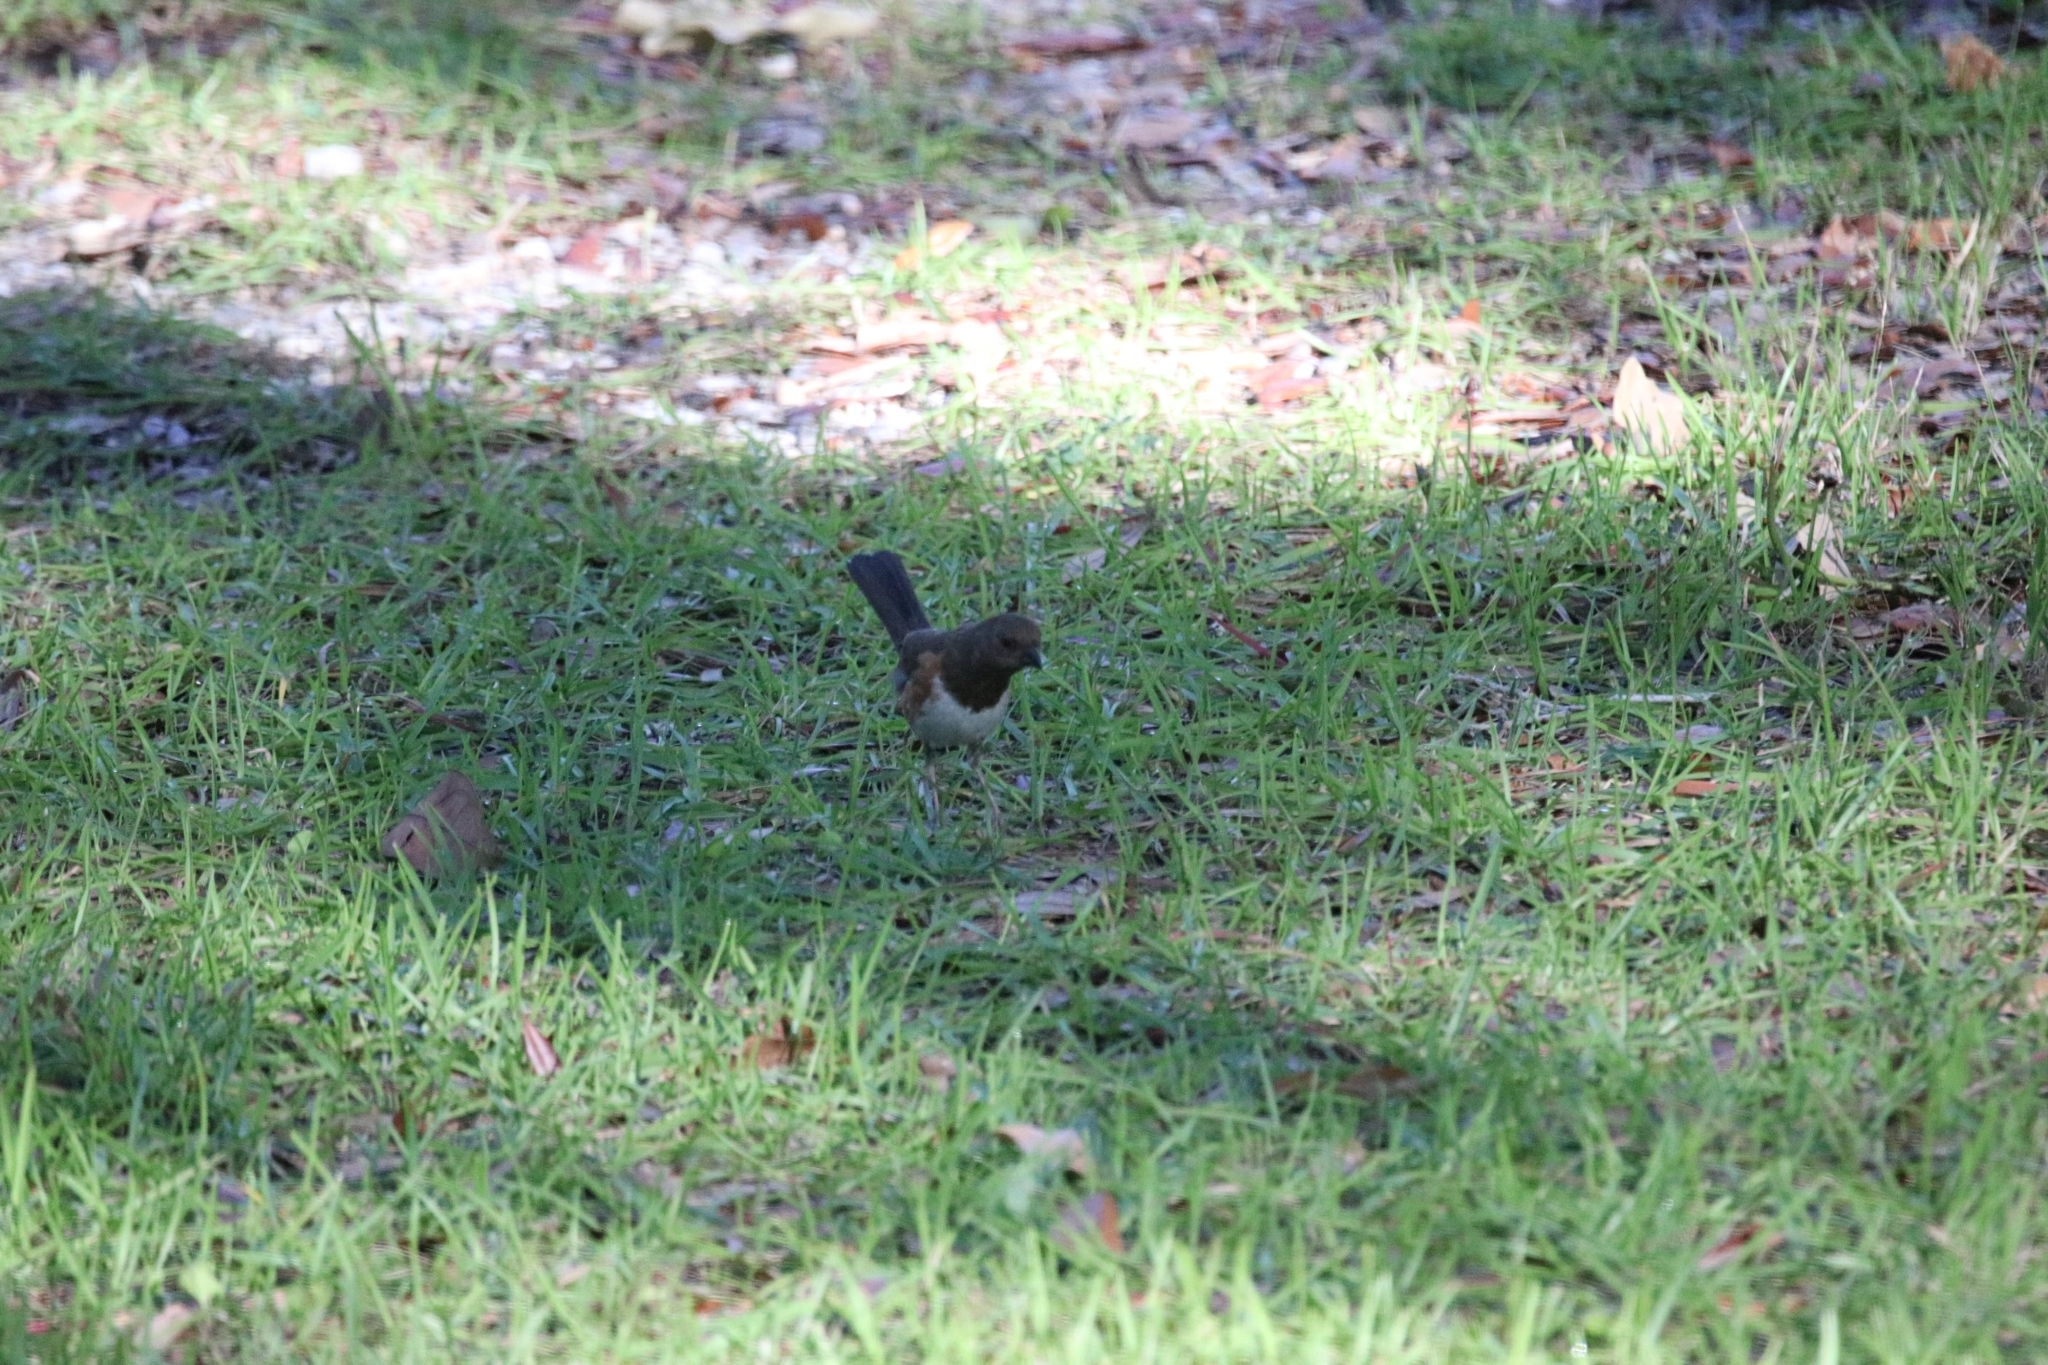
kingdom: Animalia
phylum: Chordata
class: Aves
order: Passeriformes
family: Passerellidae
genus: Pipilo
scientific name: Pipilo erythrophthalmus
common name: Eastern towhee
